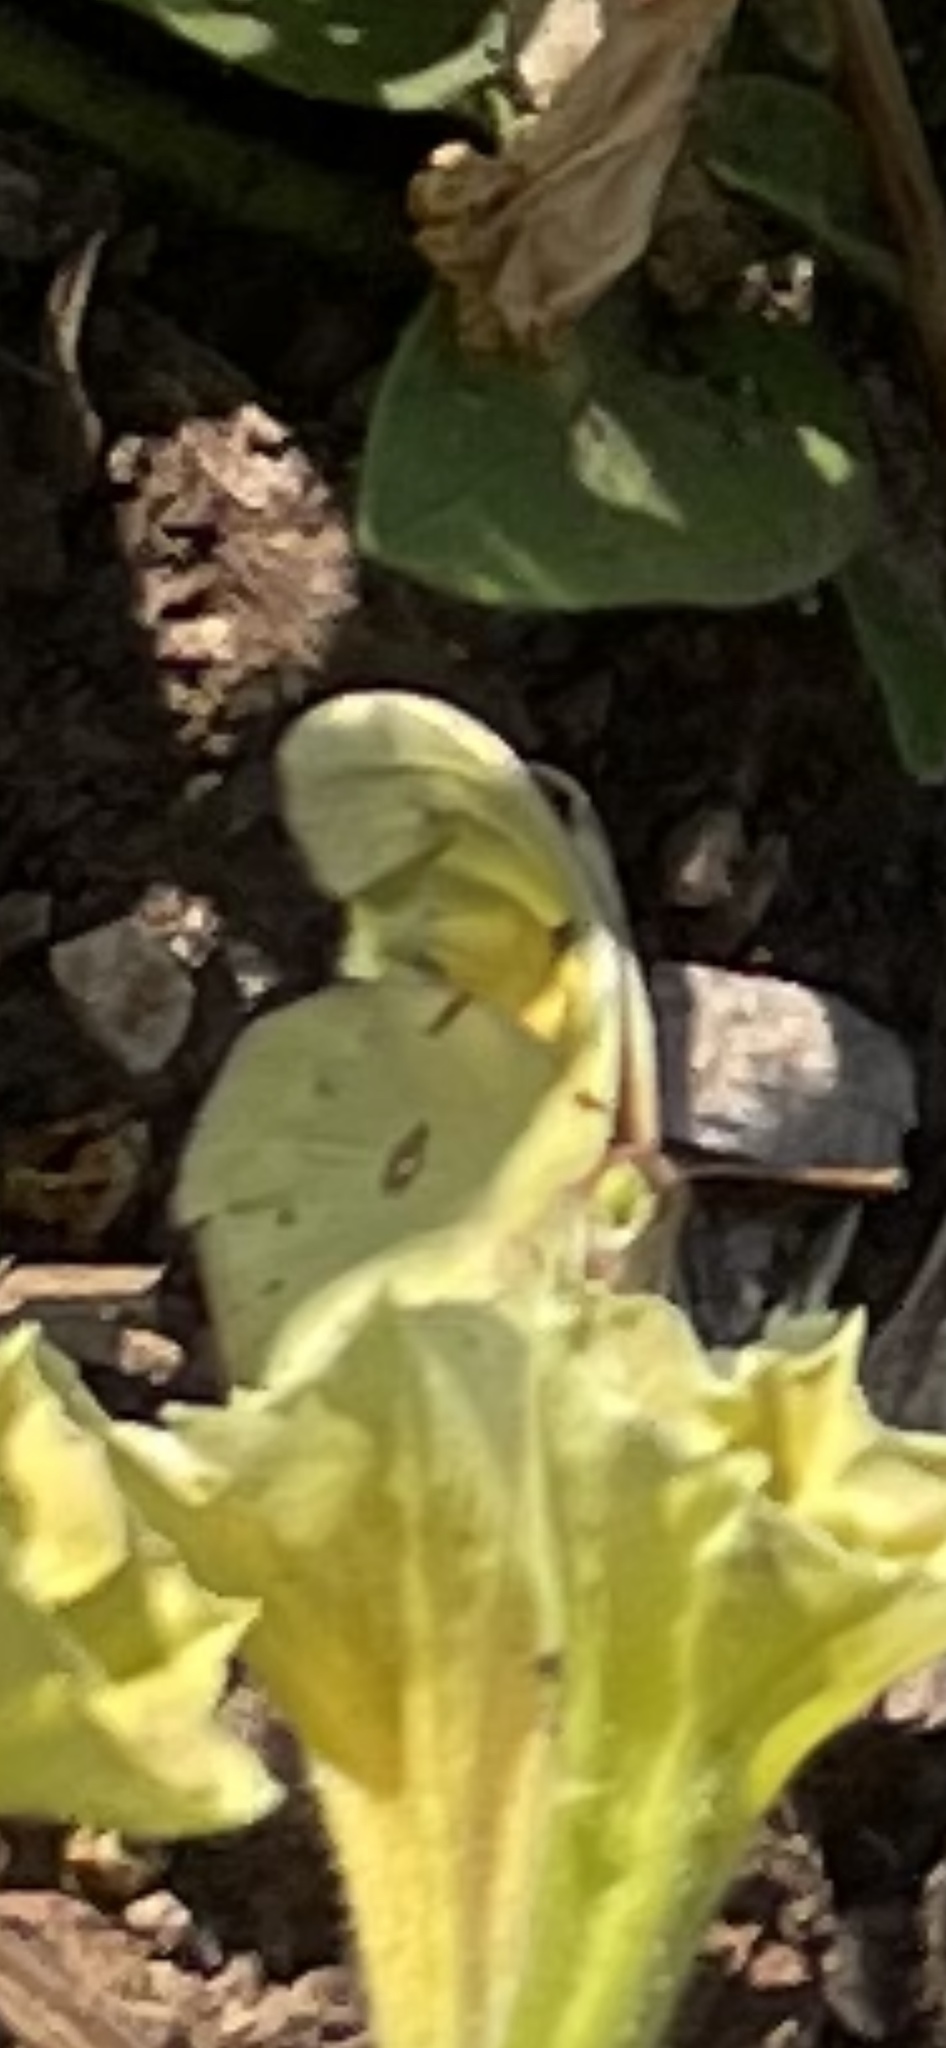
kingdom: Animalia
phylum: Arthropoda
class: Insecta
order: Lepidoptera
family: Pieridae
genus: Colias
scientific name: Colias eurytheme
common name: Alfalfa butterfly
